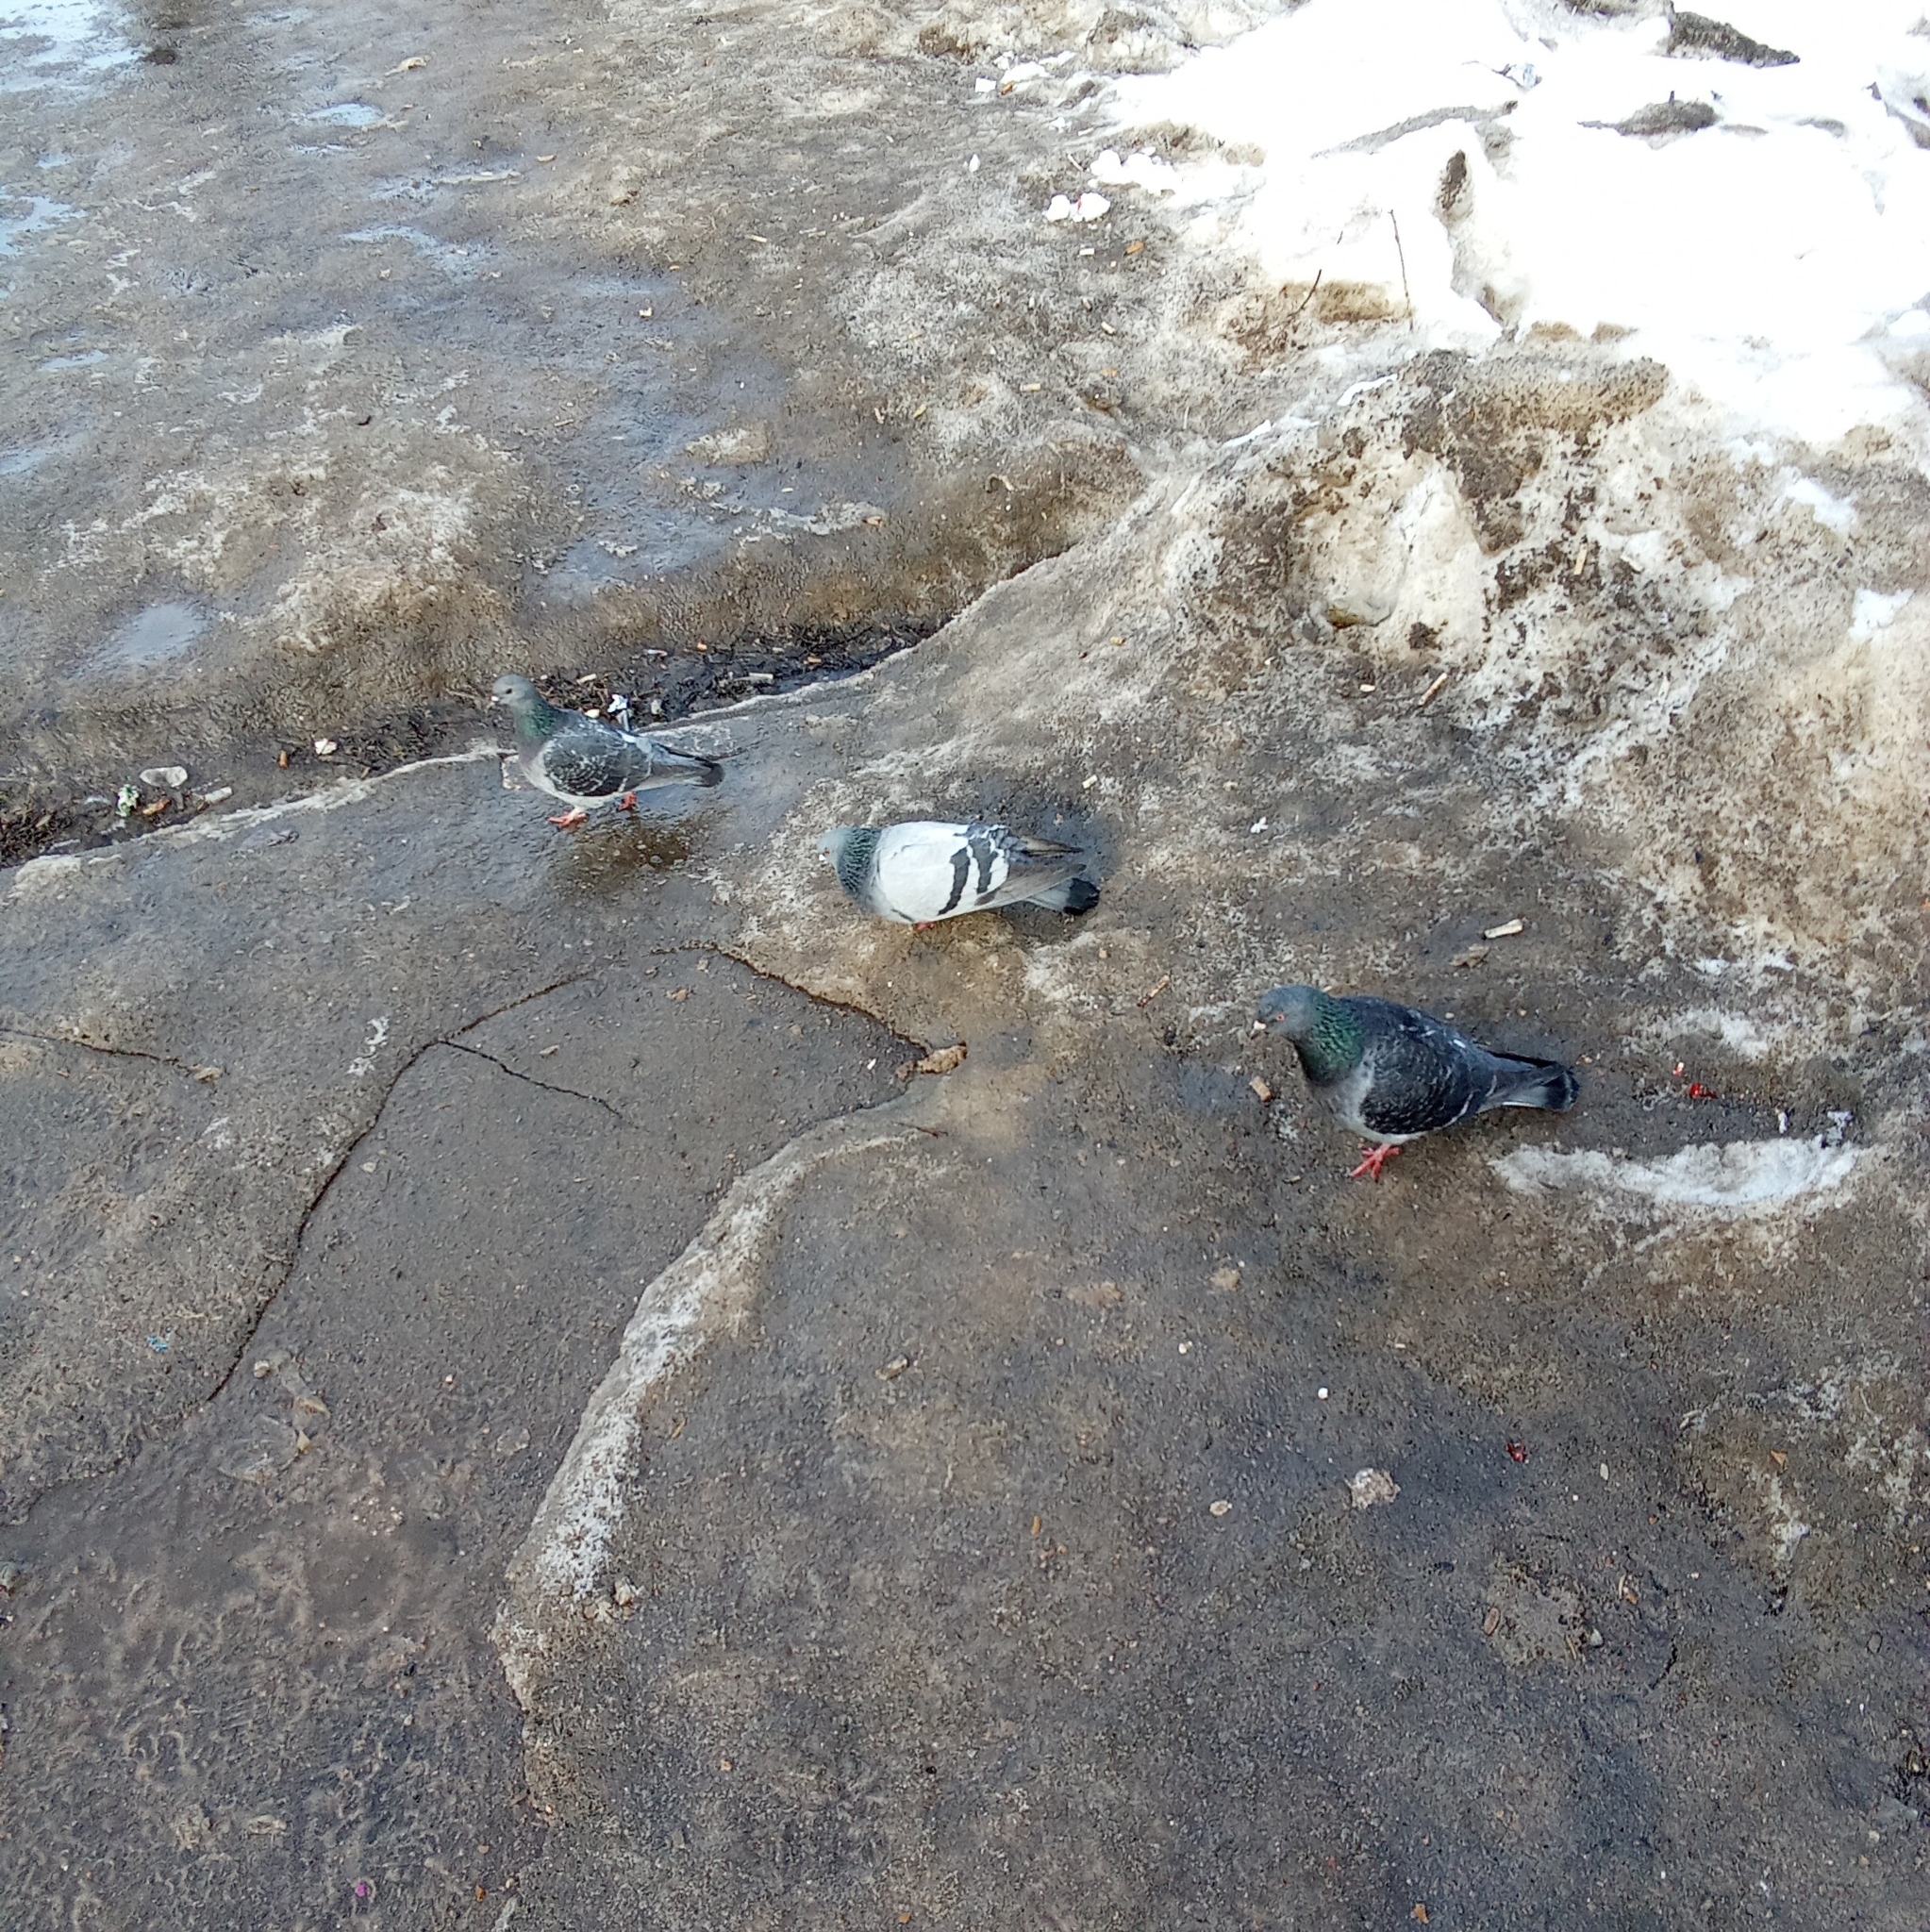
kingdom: Animalia
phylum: Chordata
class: Aves
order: Columbiformes
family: Columbidae
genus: Columba
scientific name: Columba livia
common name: Rock pigeon
